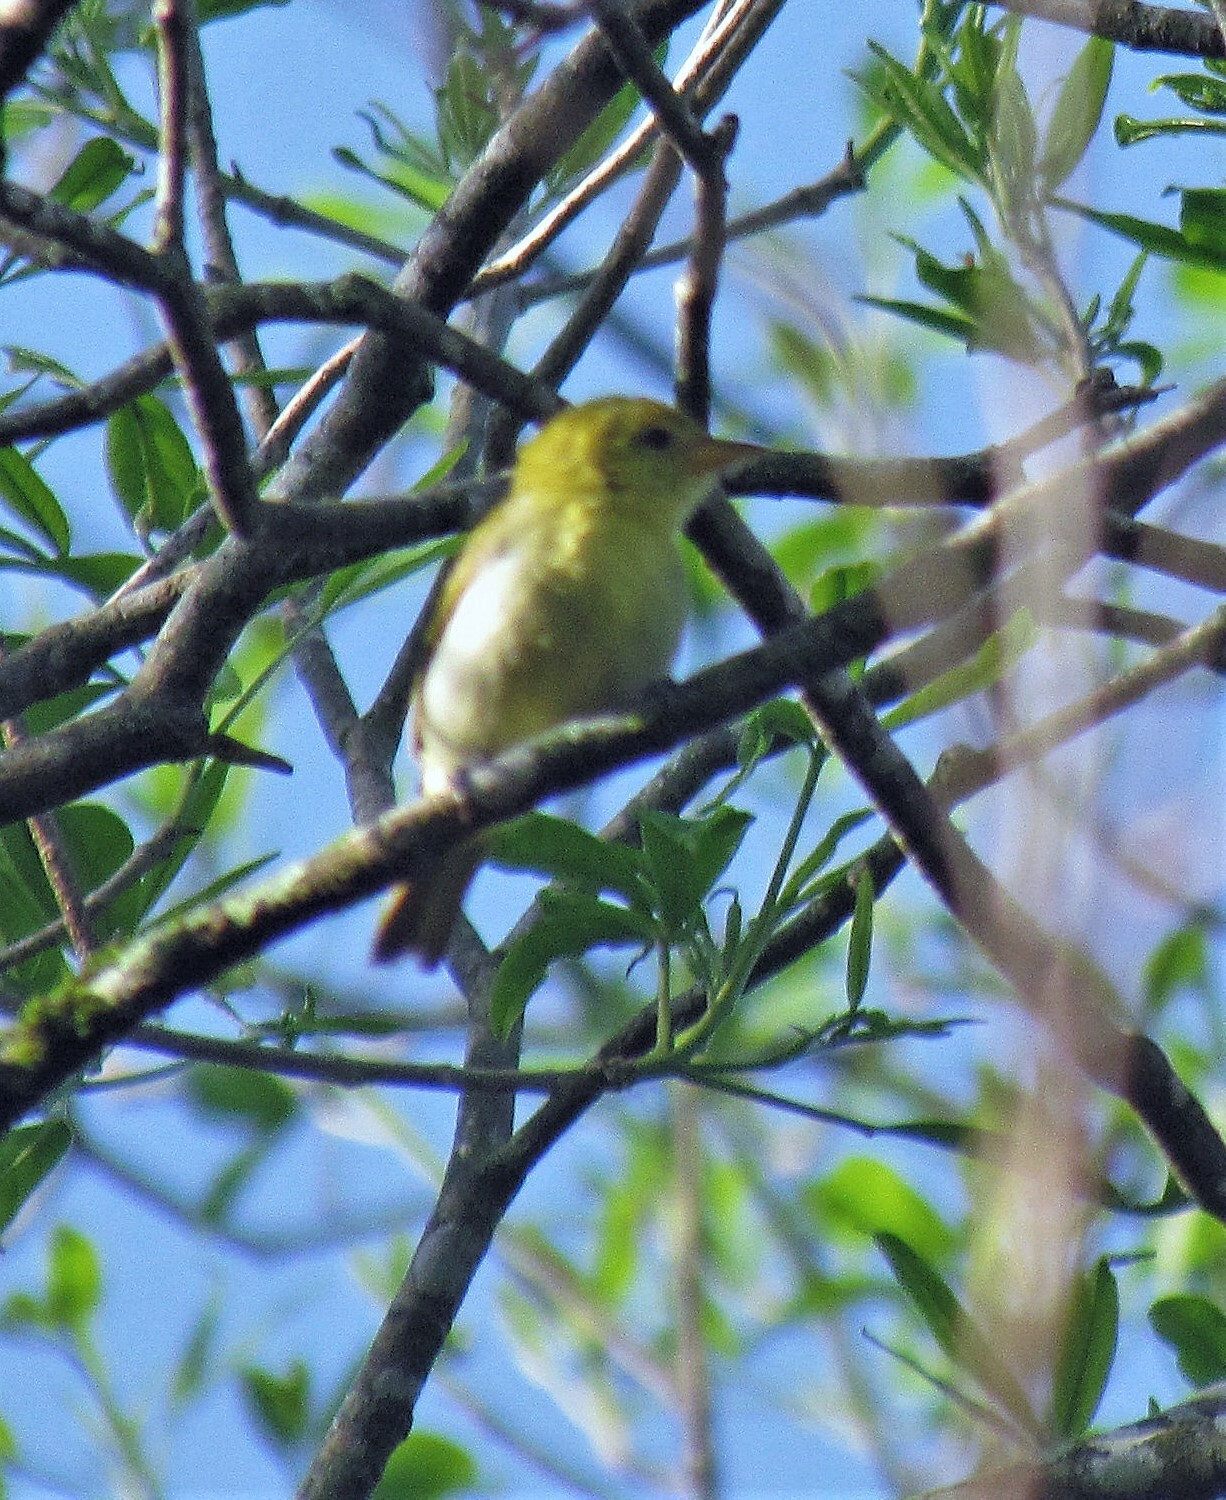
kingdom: Animalia
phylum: Chordata
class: Aves
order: Passeriformes
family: Thraupidae
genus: Hemithraupis
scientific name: Hemithraupis guira
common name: Guira tanager
